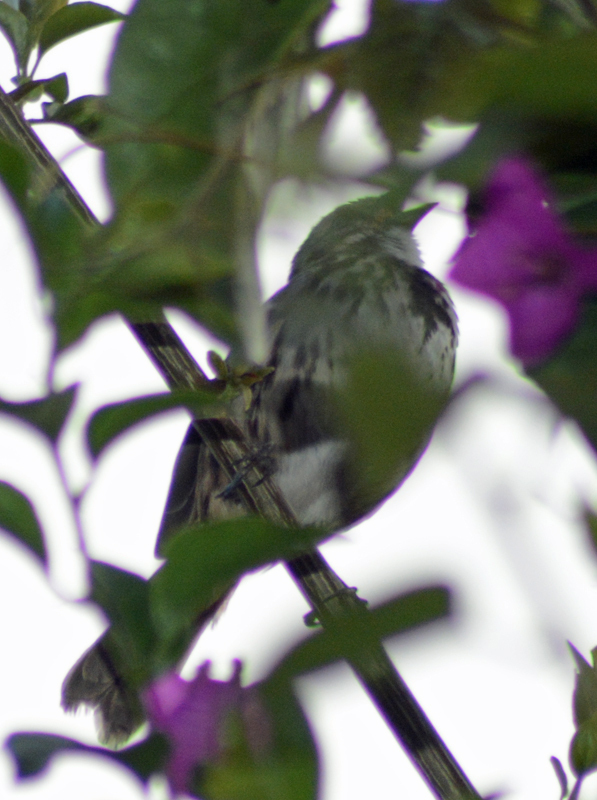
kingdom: Animalia
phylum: Chordata
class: Aves
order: Passeriformes
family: Passerellidae
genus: Melospiza
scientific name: Melospiza melodia
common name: Song sparrow
